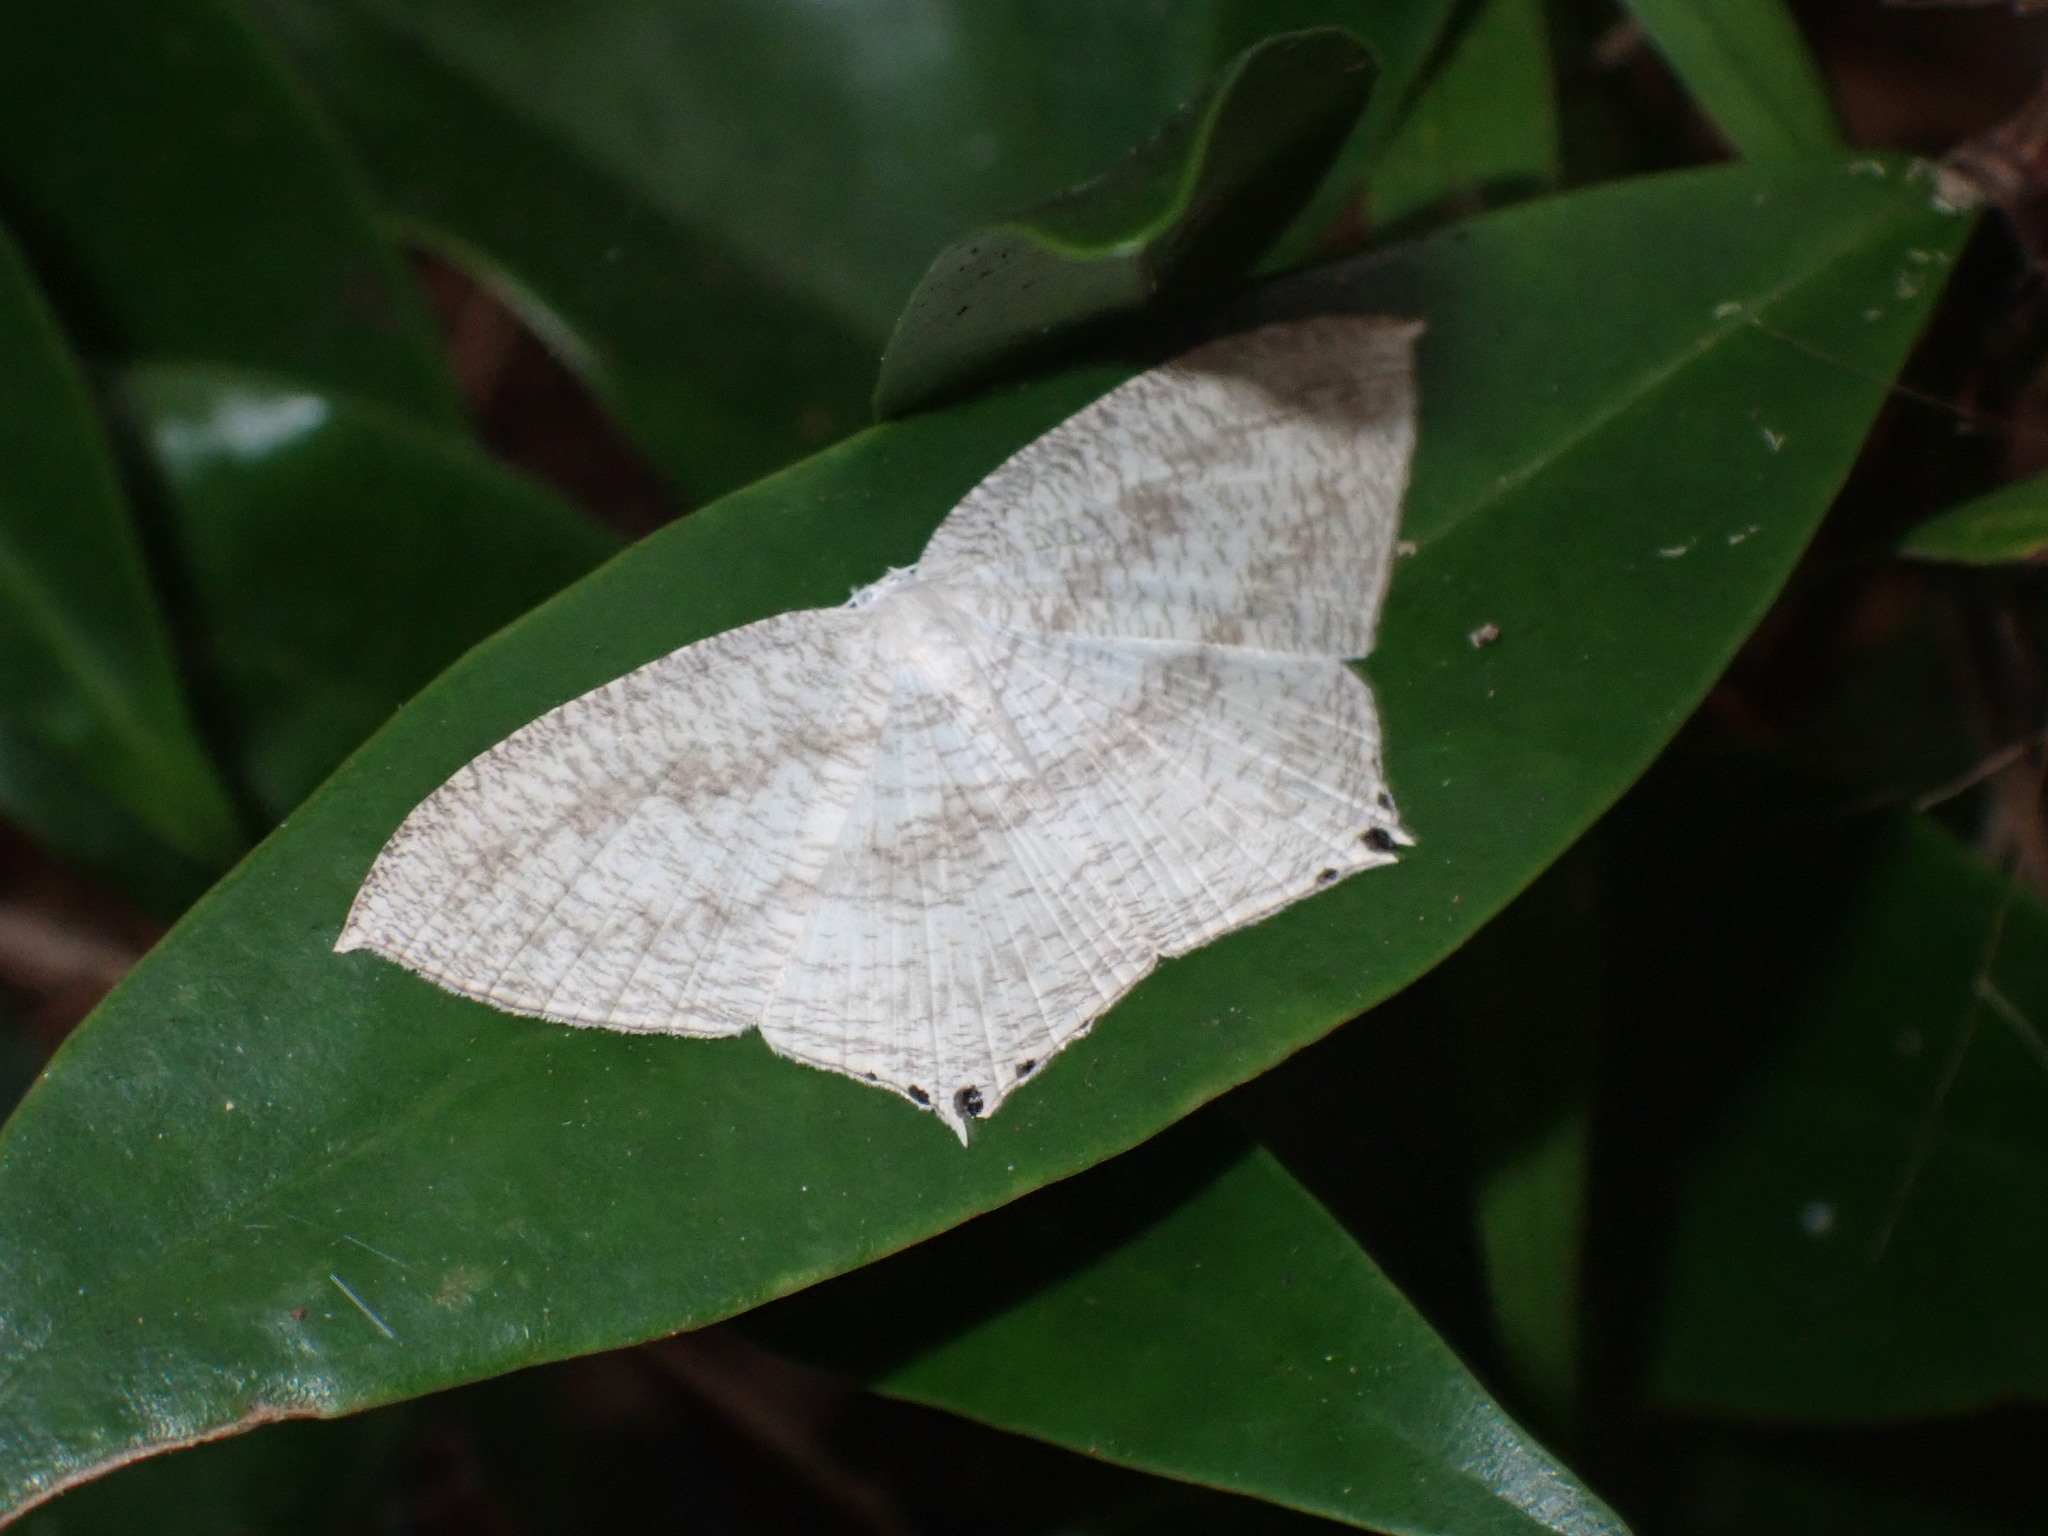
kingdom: Animalia
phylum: Arthropoda
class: Insecta
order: Lepidoptera
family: Uraniidae
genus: Acropteris
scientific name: Acropteris ciniferaria
